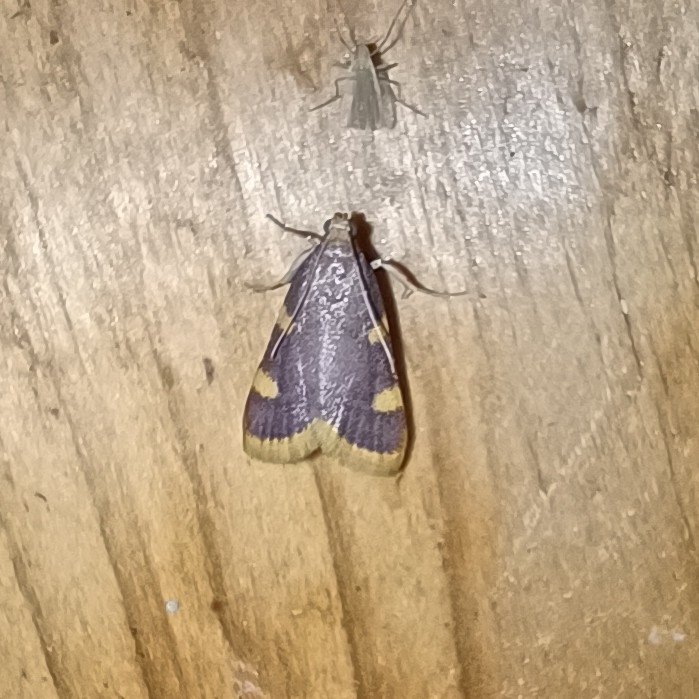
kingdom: Animalia
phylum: Arthropoda
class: Insecta
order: Lepidoptera
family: Pyralidae
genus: Hypsopygia
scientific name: Hypsopygia costalis
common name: Gold triangle
